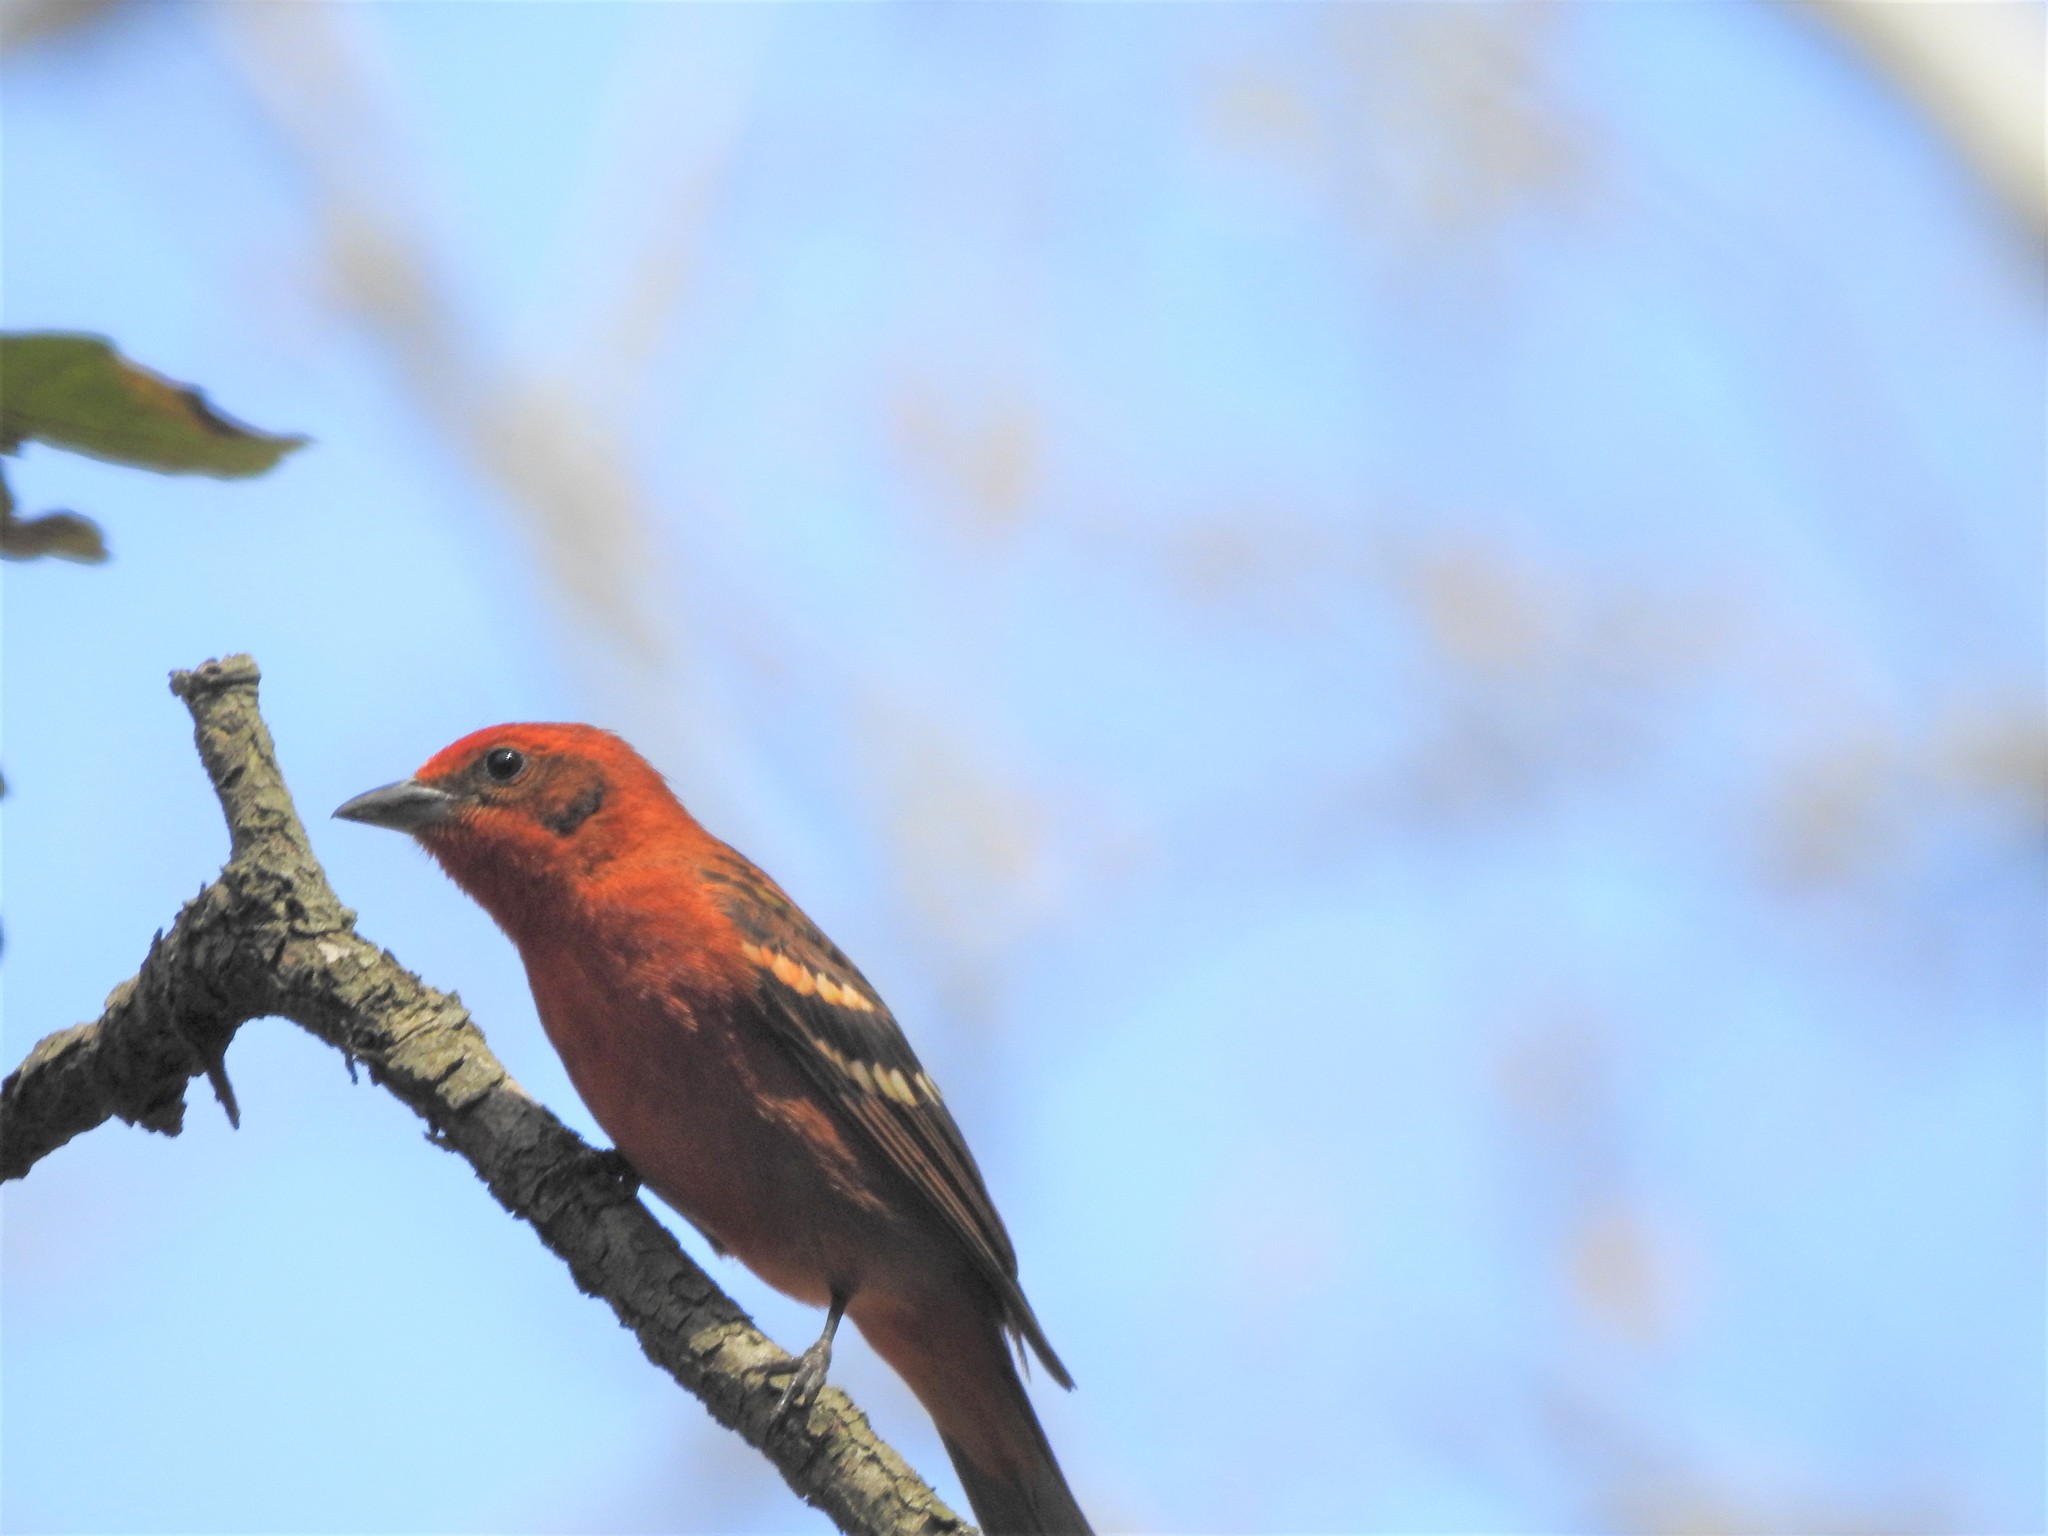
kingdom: Animalia
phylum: Chordata
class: Aves
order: Passeriformes
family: Cardinalidae
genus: Piranga
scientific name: Piranga bidentata
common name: Flame-colored tanager
